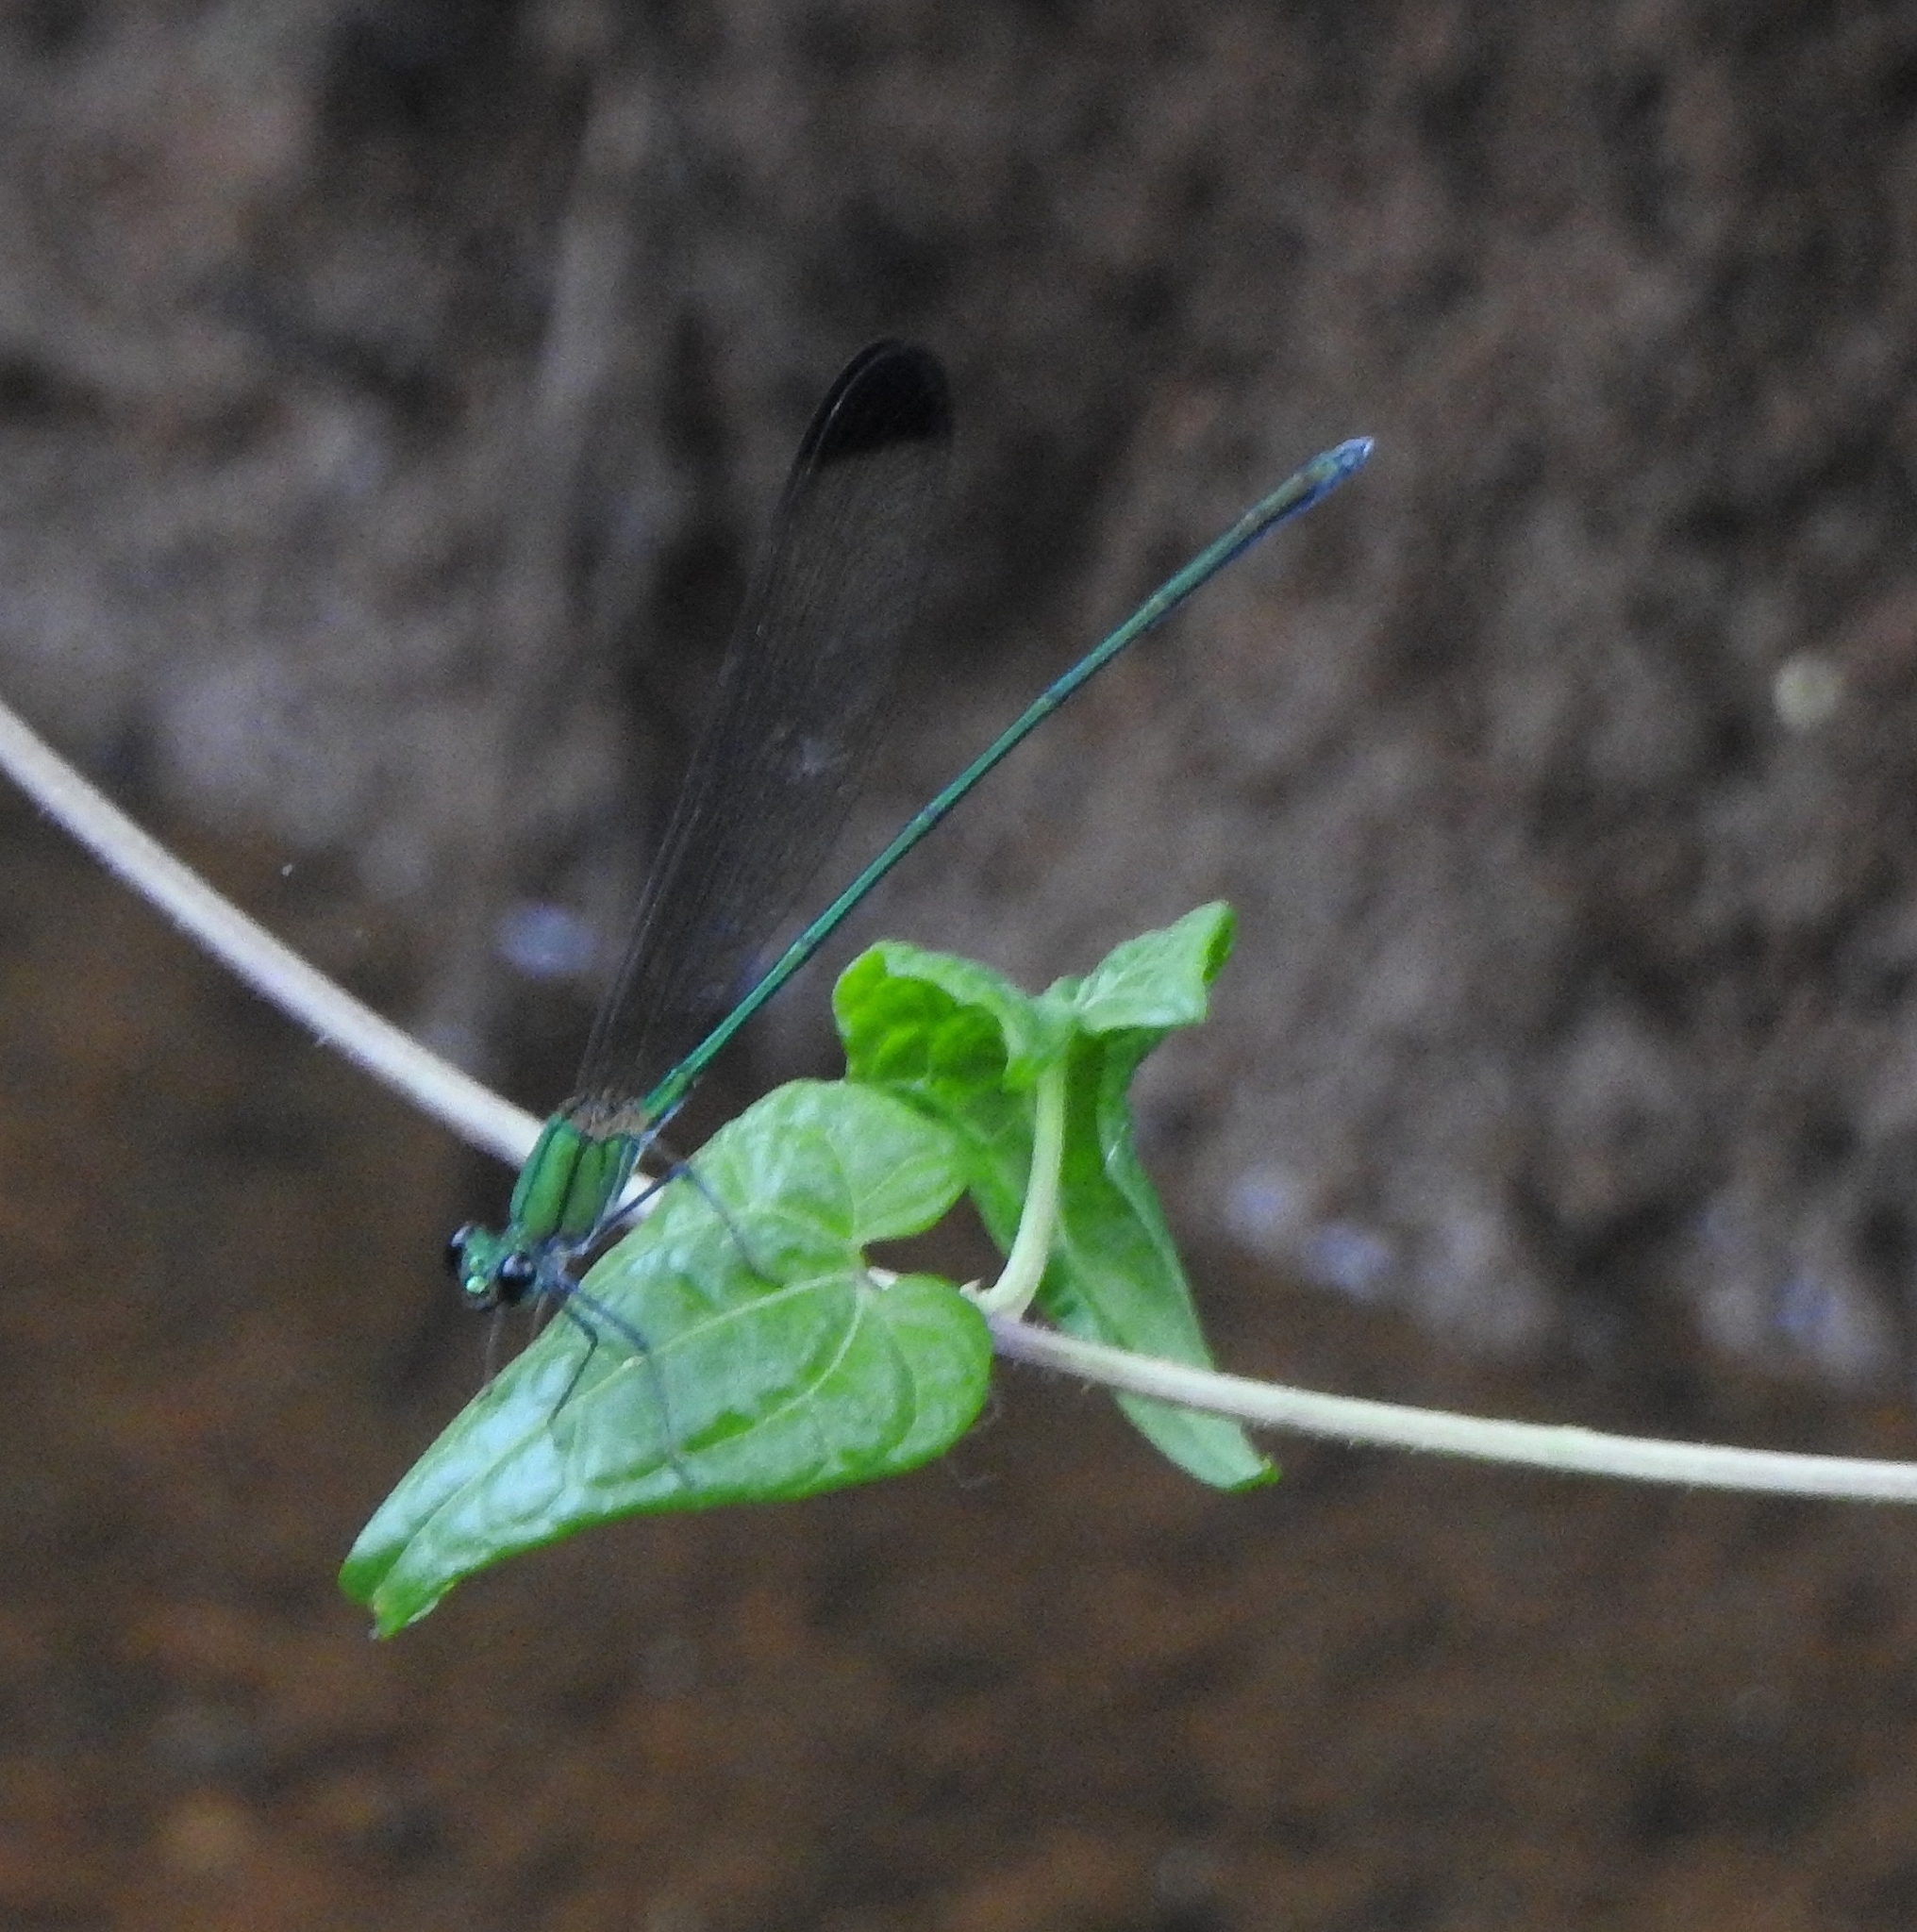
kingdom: Animalia
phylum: Arthropoda
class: Insecta
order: Odonata
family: Calopterygidae
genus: Vestalis
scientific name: Vestalis apicalis
